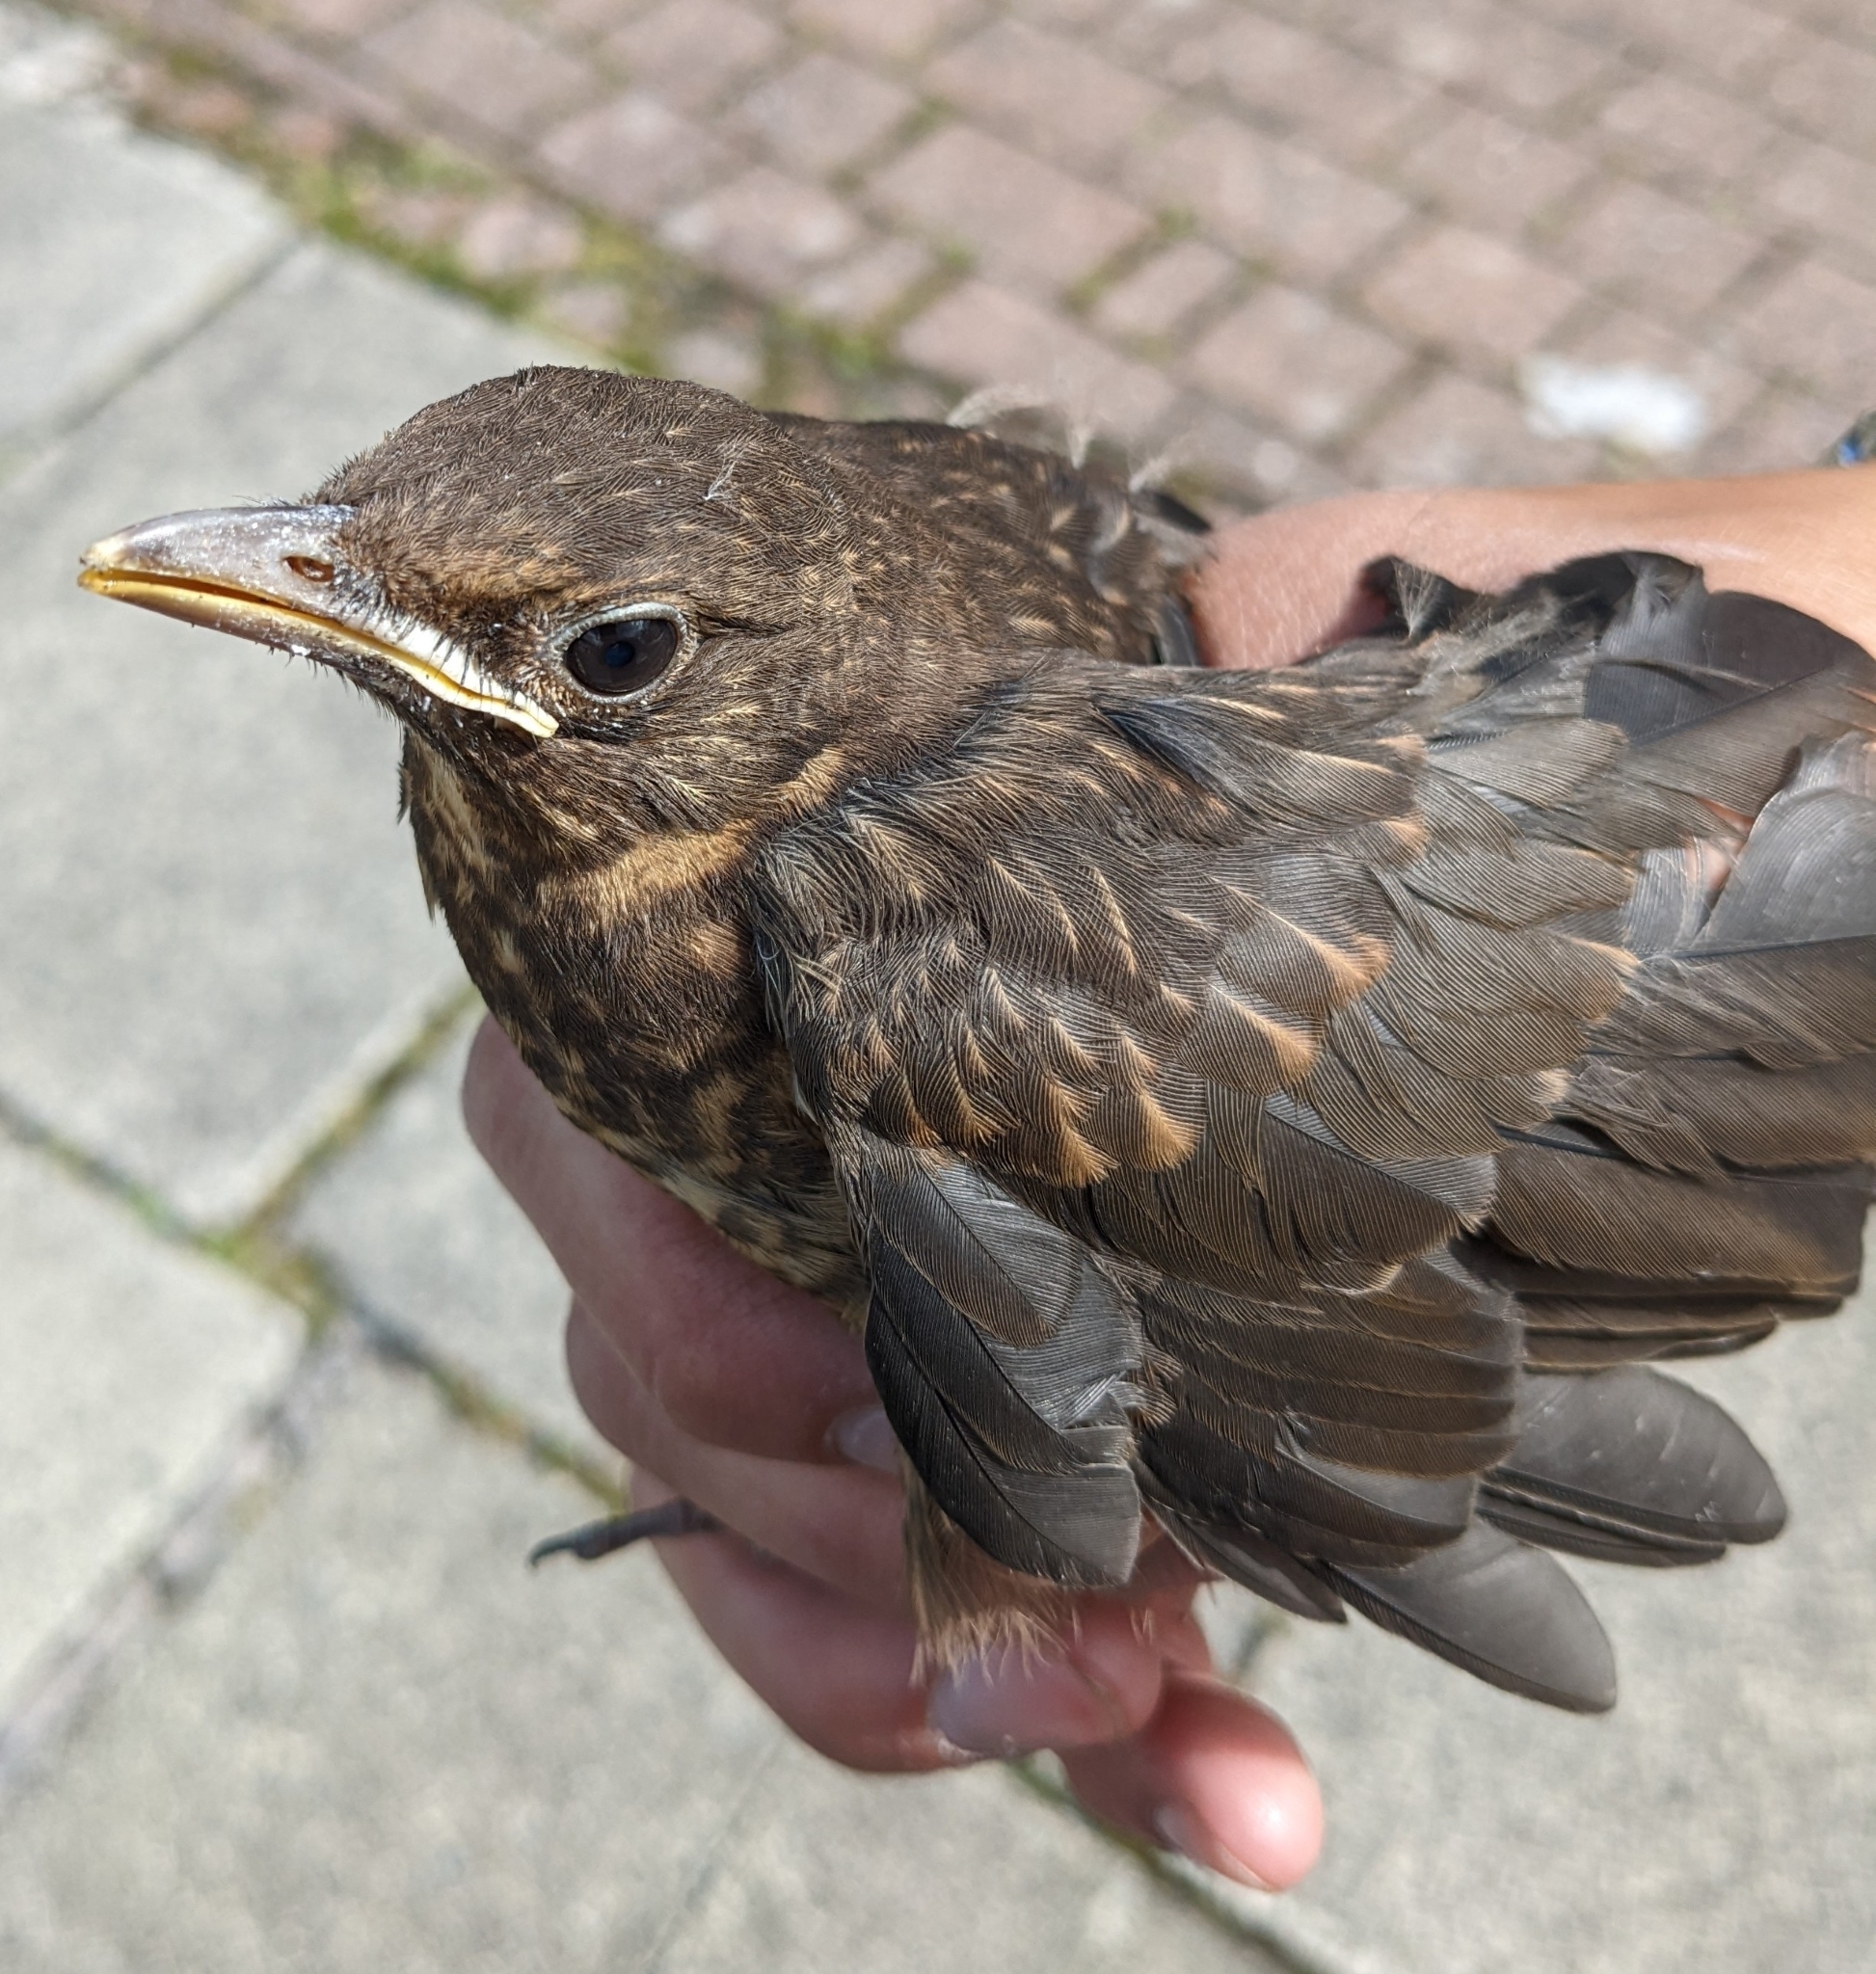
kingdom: Animalia
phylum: Chordata
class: Aves
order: Passeriformes
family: Turdidae
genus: Turdus
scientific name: Turdus merula
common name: Common blackbird
